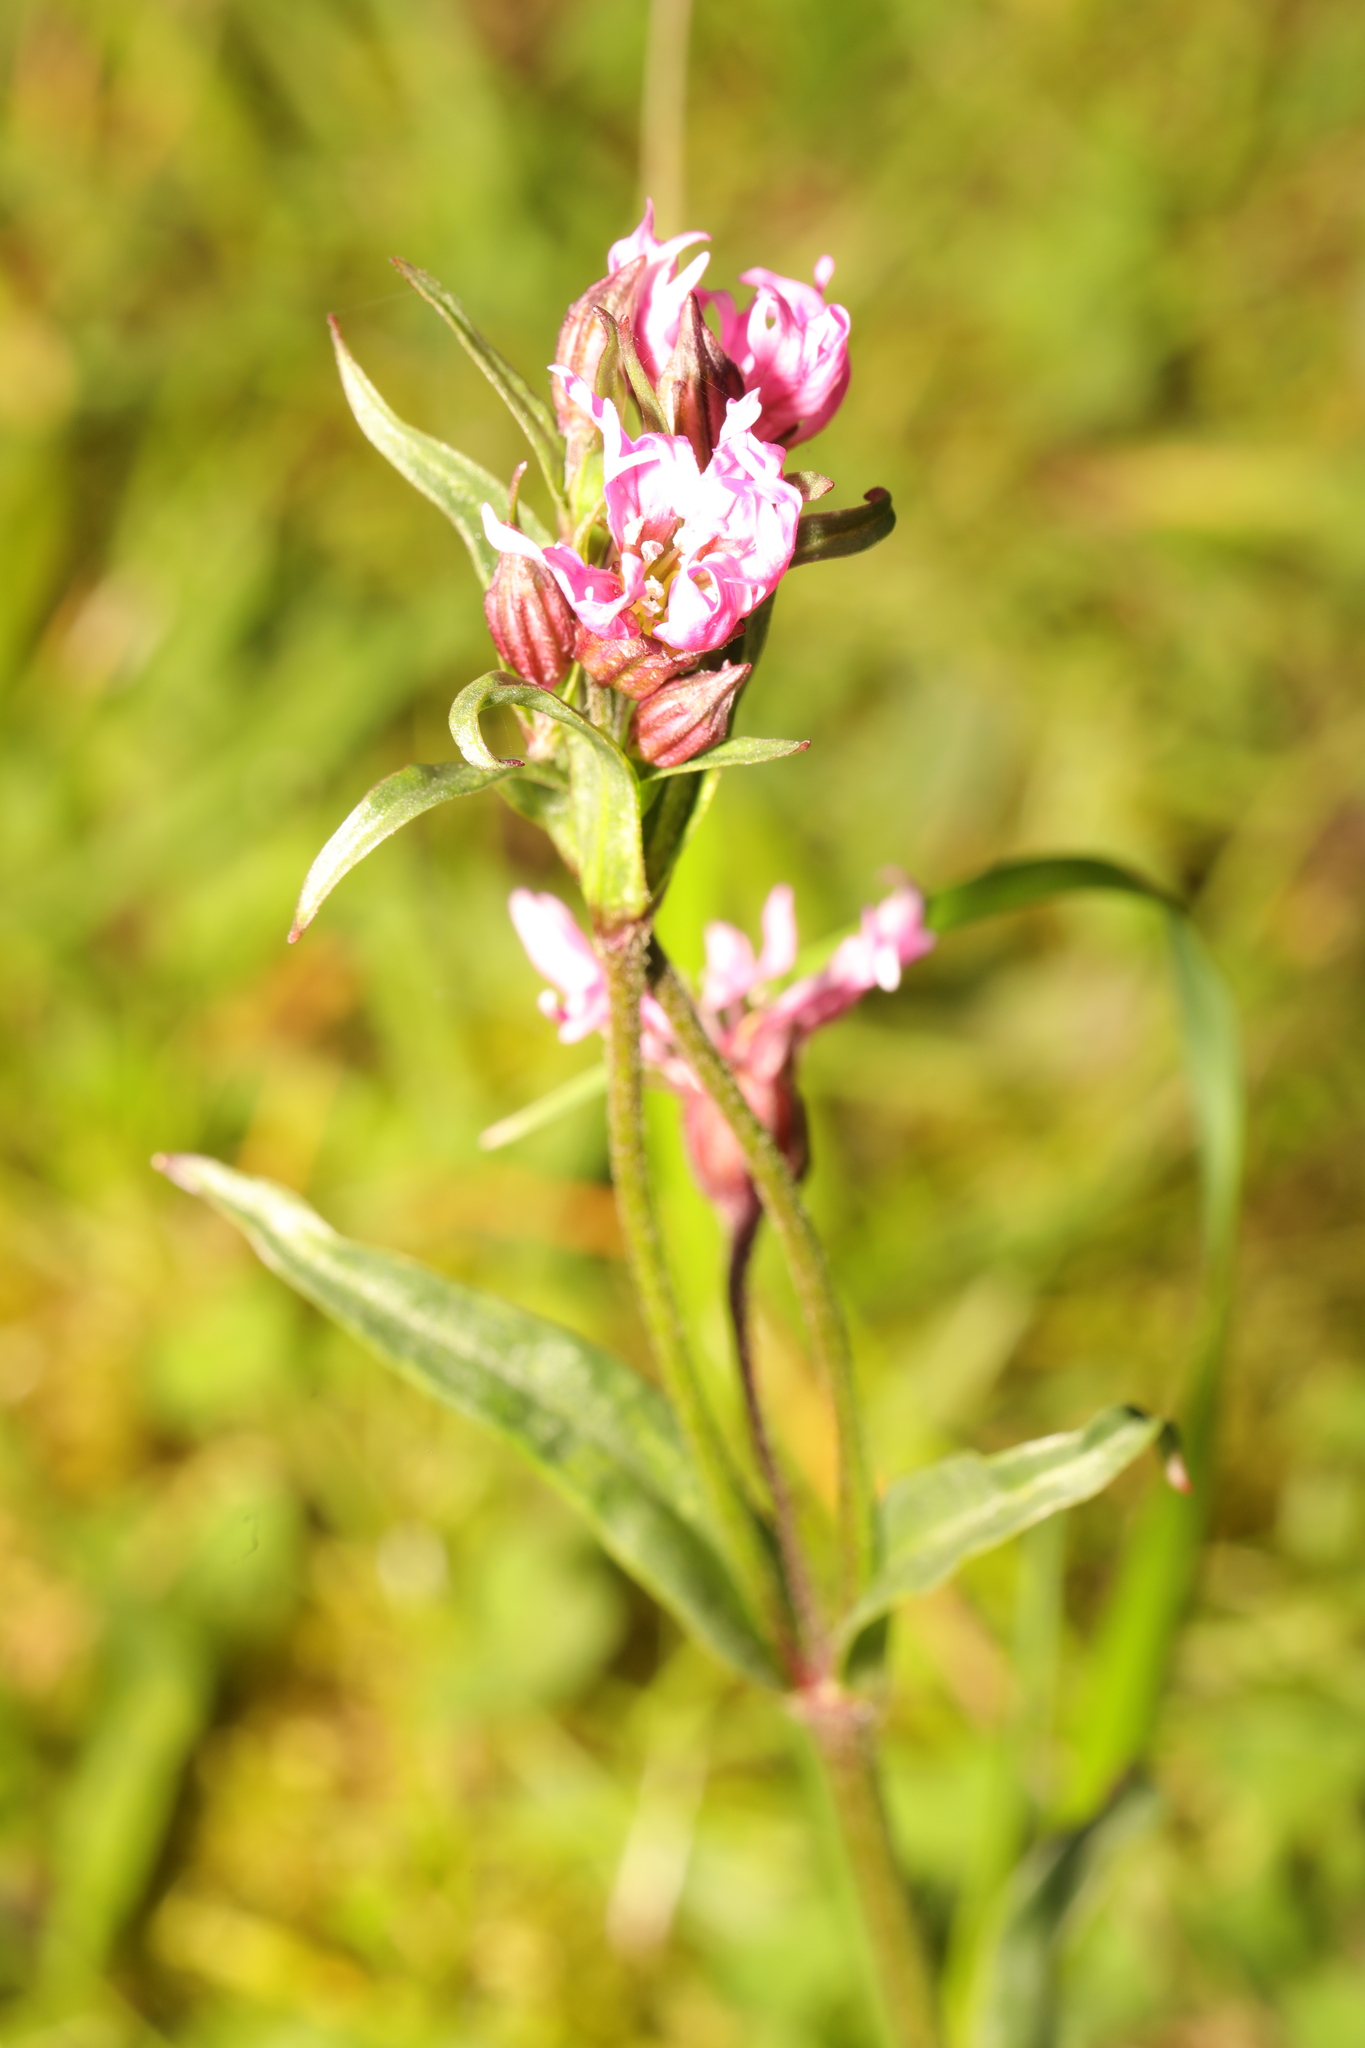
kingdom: Plantae
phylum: Tracheophyta
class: Magnoliopsida
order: Caryophyllales
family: Caryophyllaceae
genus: Silene
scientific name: Silene flos-cuculi
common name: Ragged-robin
